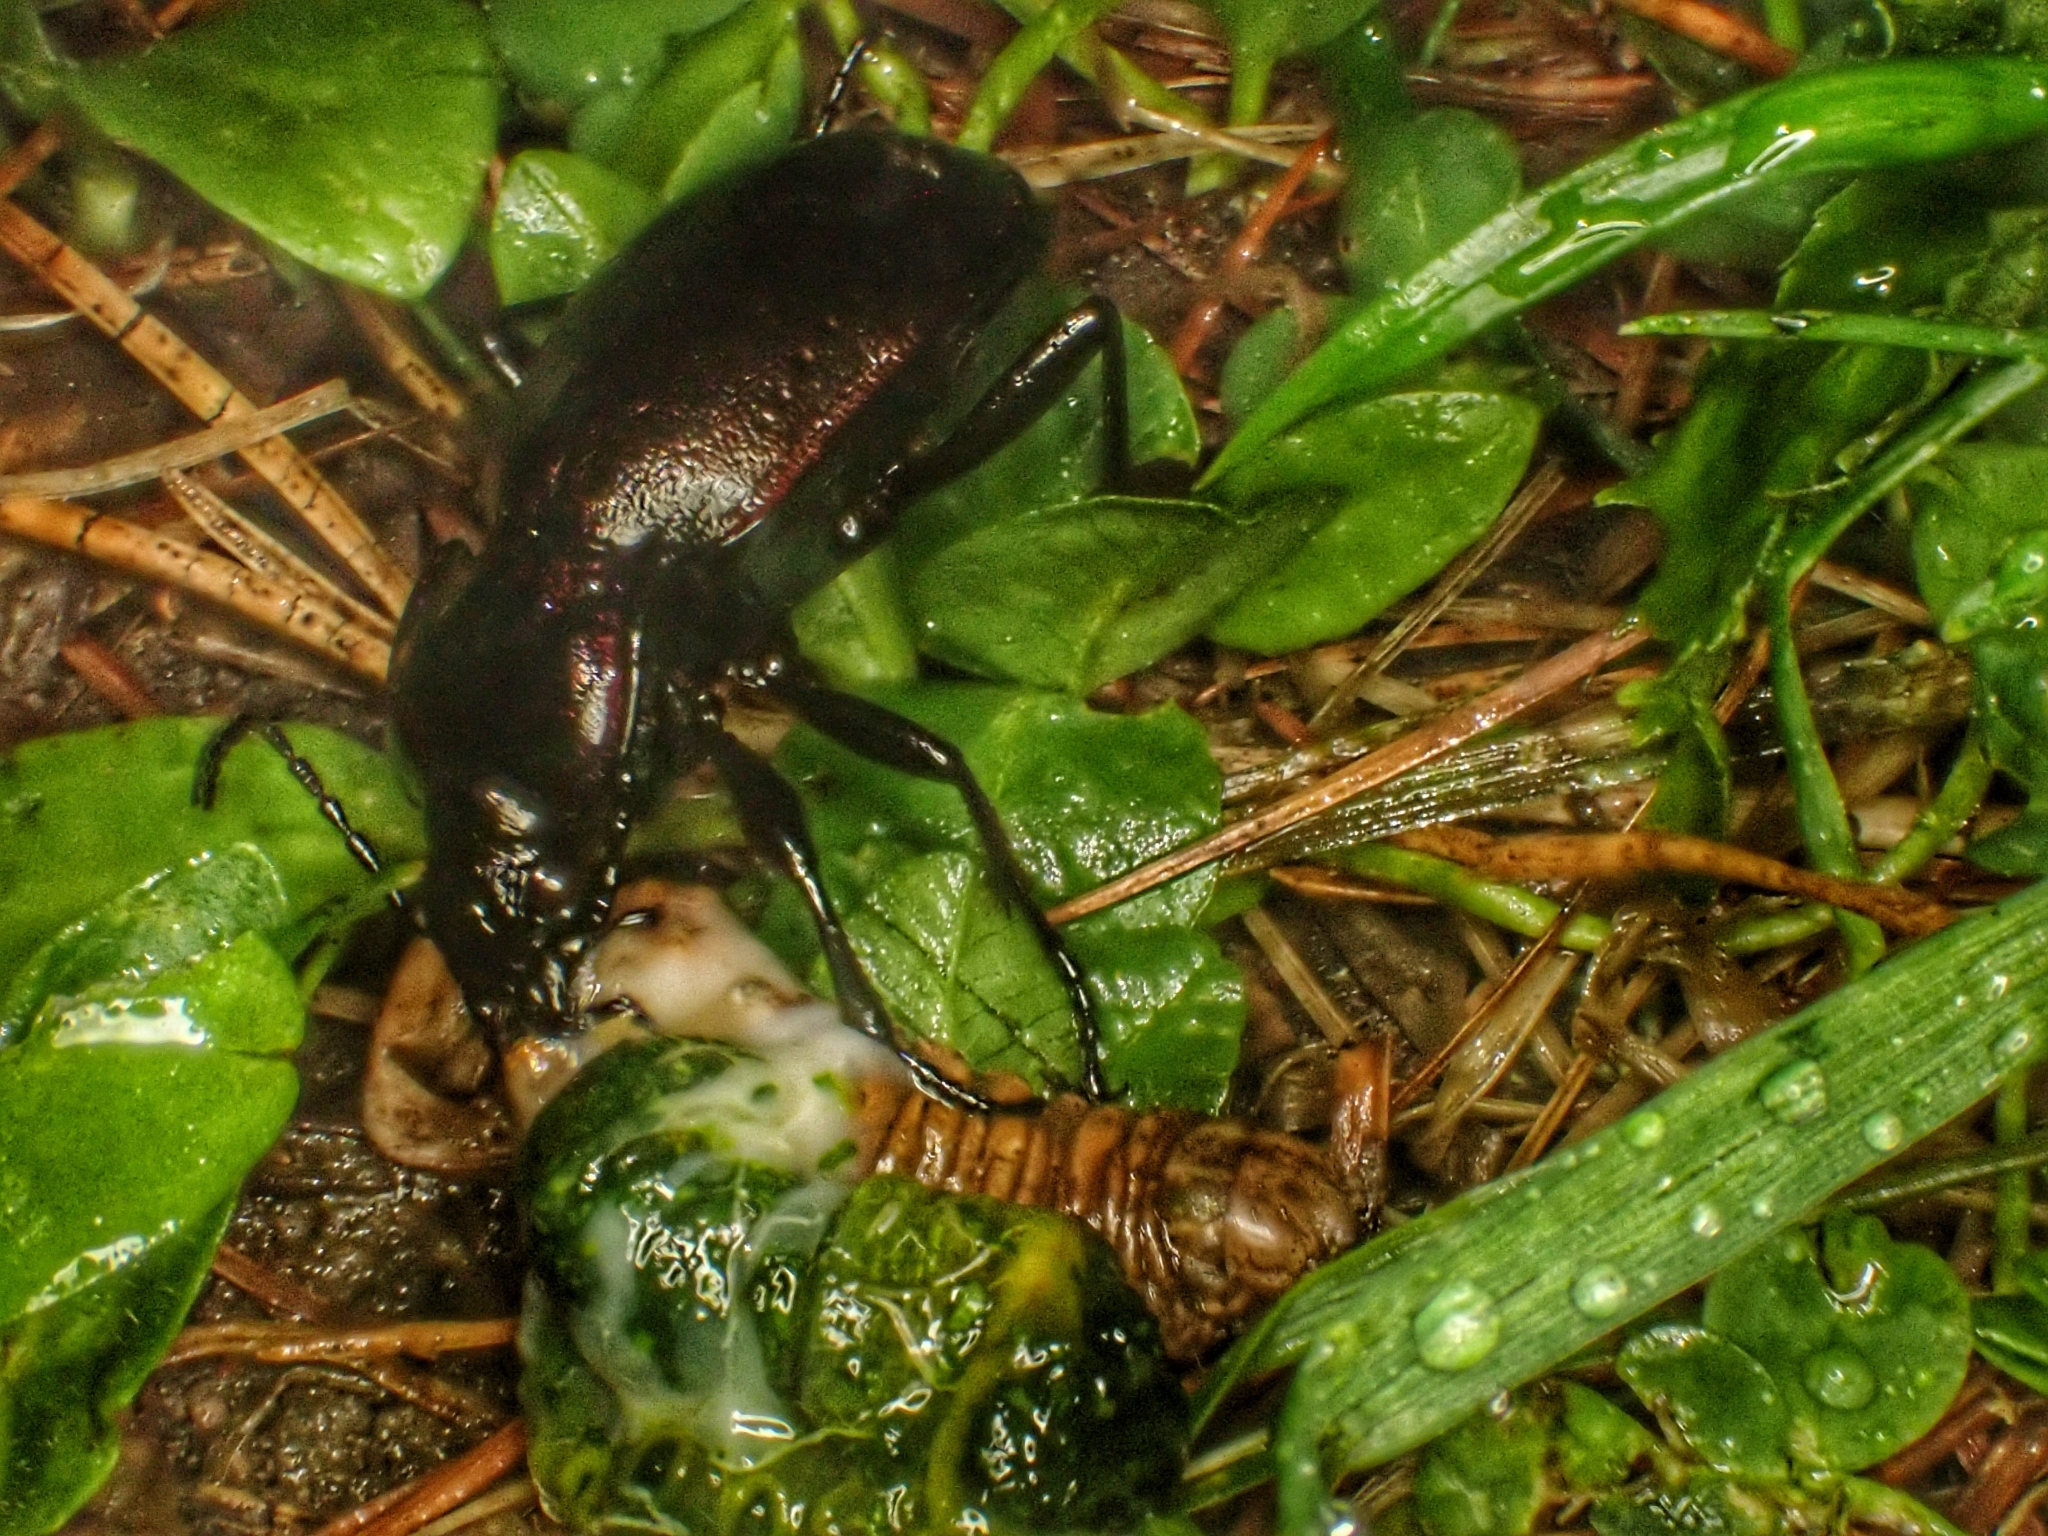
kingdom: Animalia
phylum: Arthropoda
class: Insecta
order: Coleoptera
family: Carabidae
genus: Carabus
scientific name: Carabus nemoralis
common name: European ground beetle
